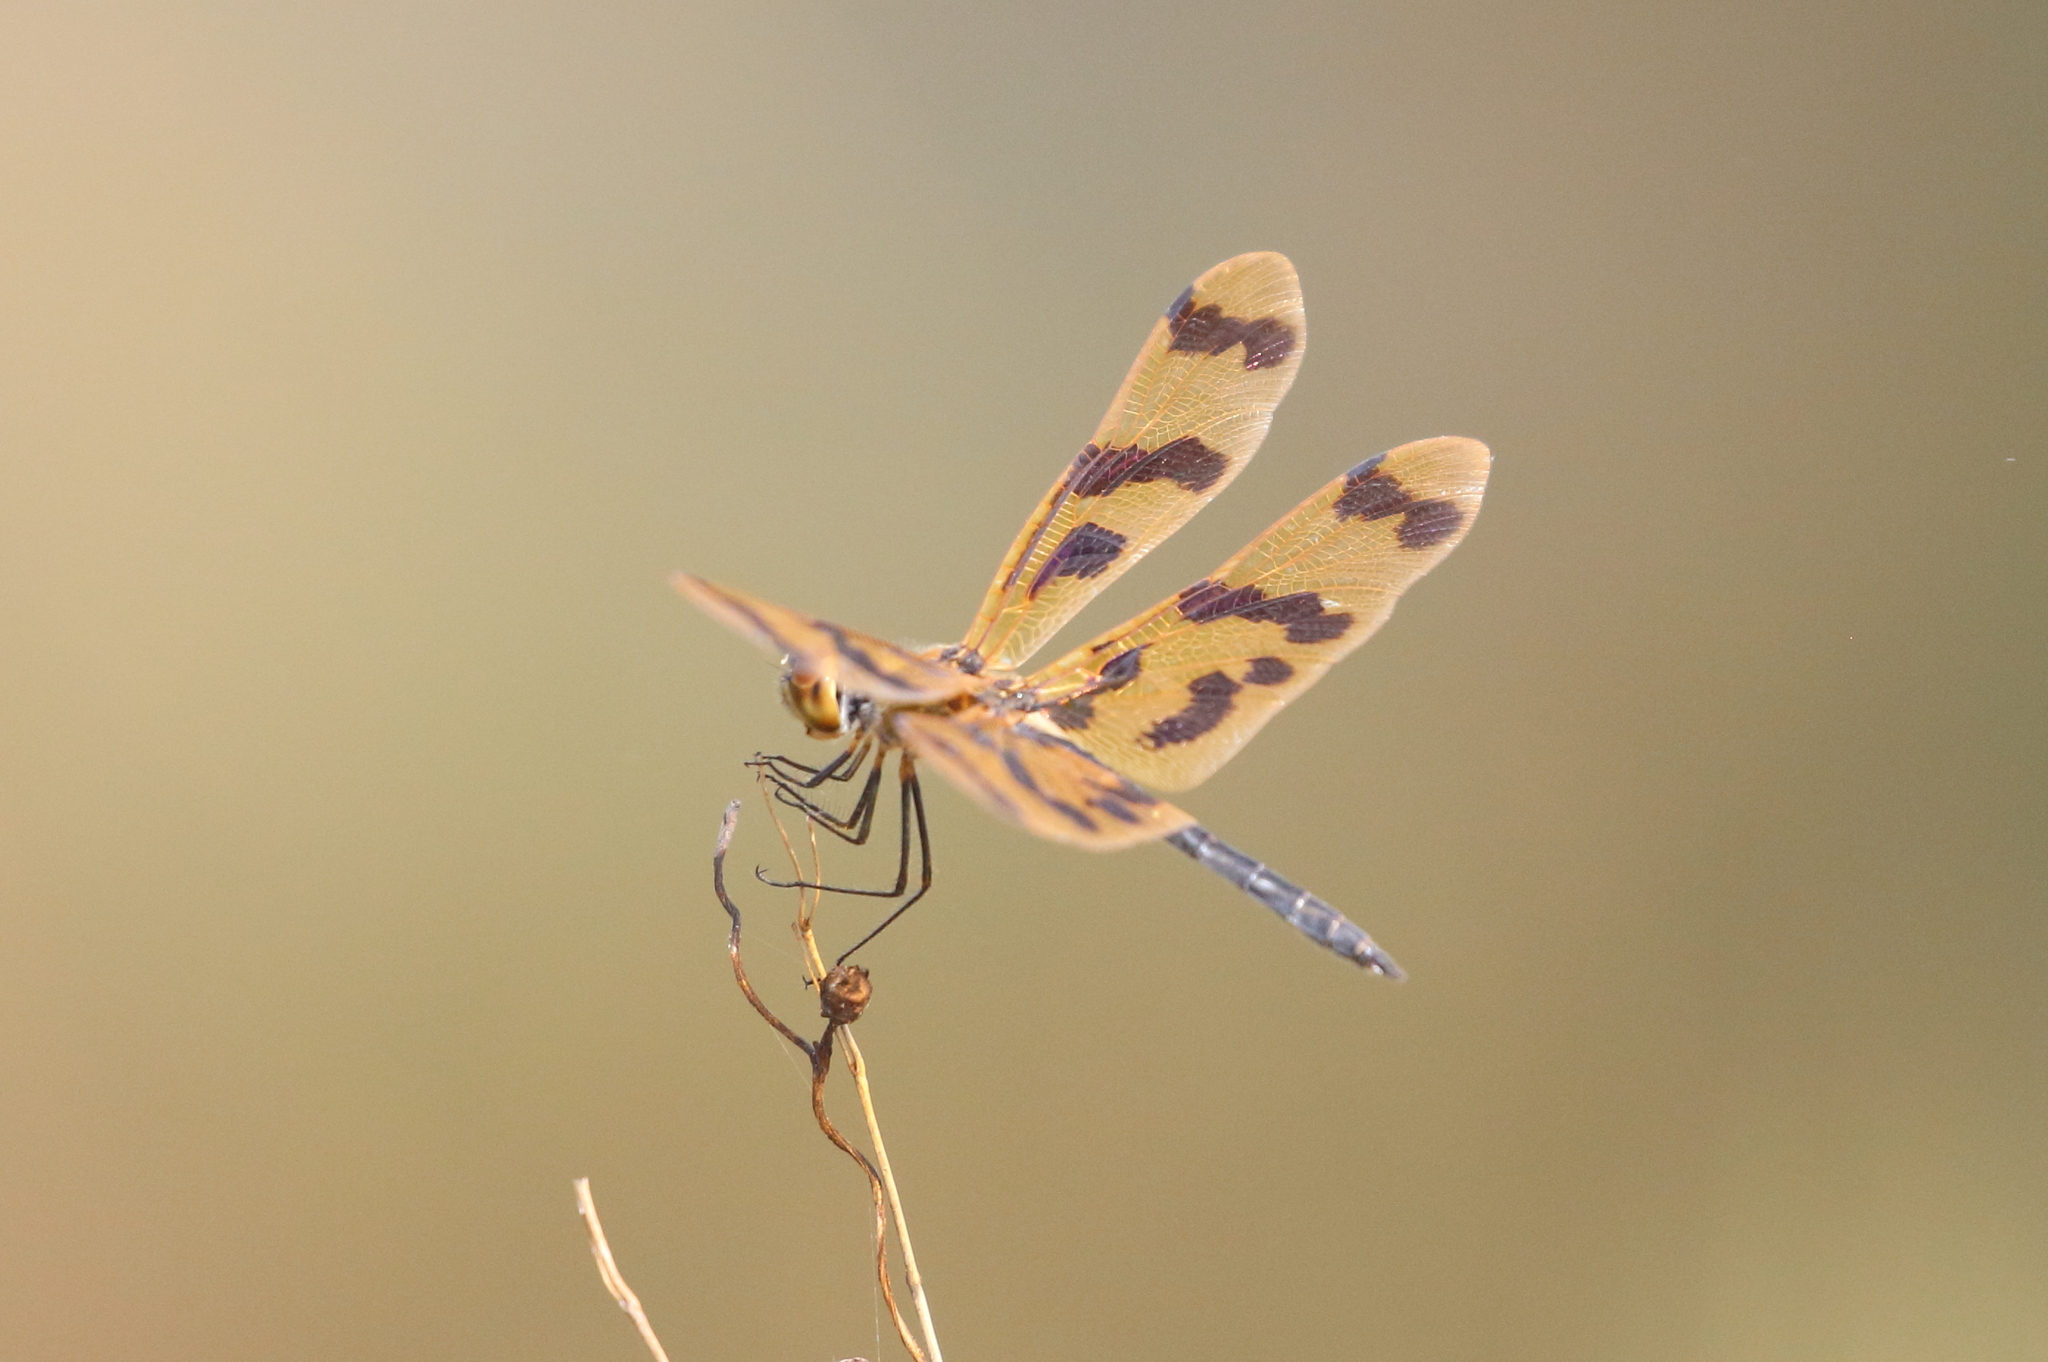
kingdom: Animalia
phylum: Arthropoda
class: Insecta
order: Odonata
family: Libellulidae
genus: Rhyothemis
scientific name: Rhyothemis graphiptera
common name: Graphic flutterer
